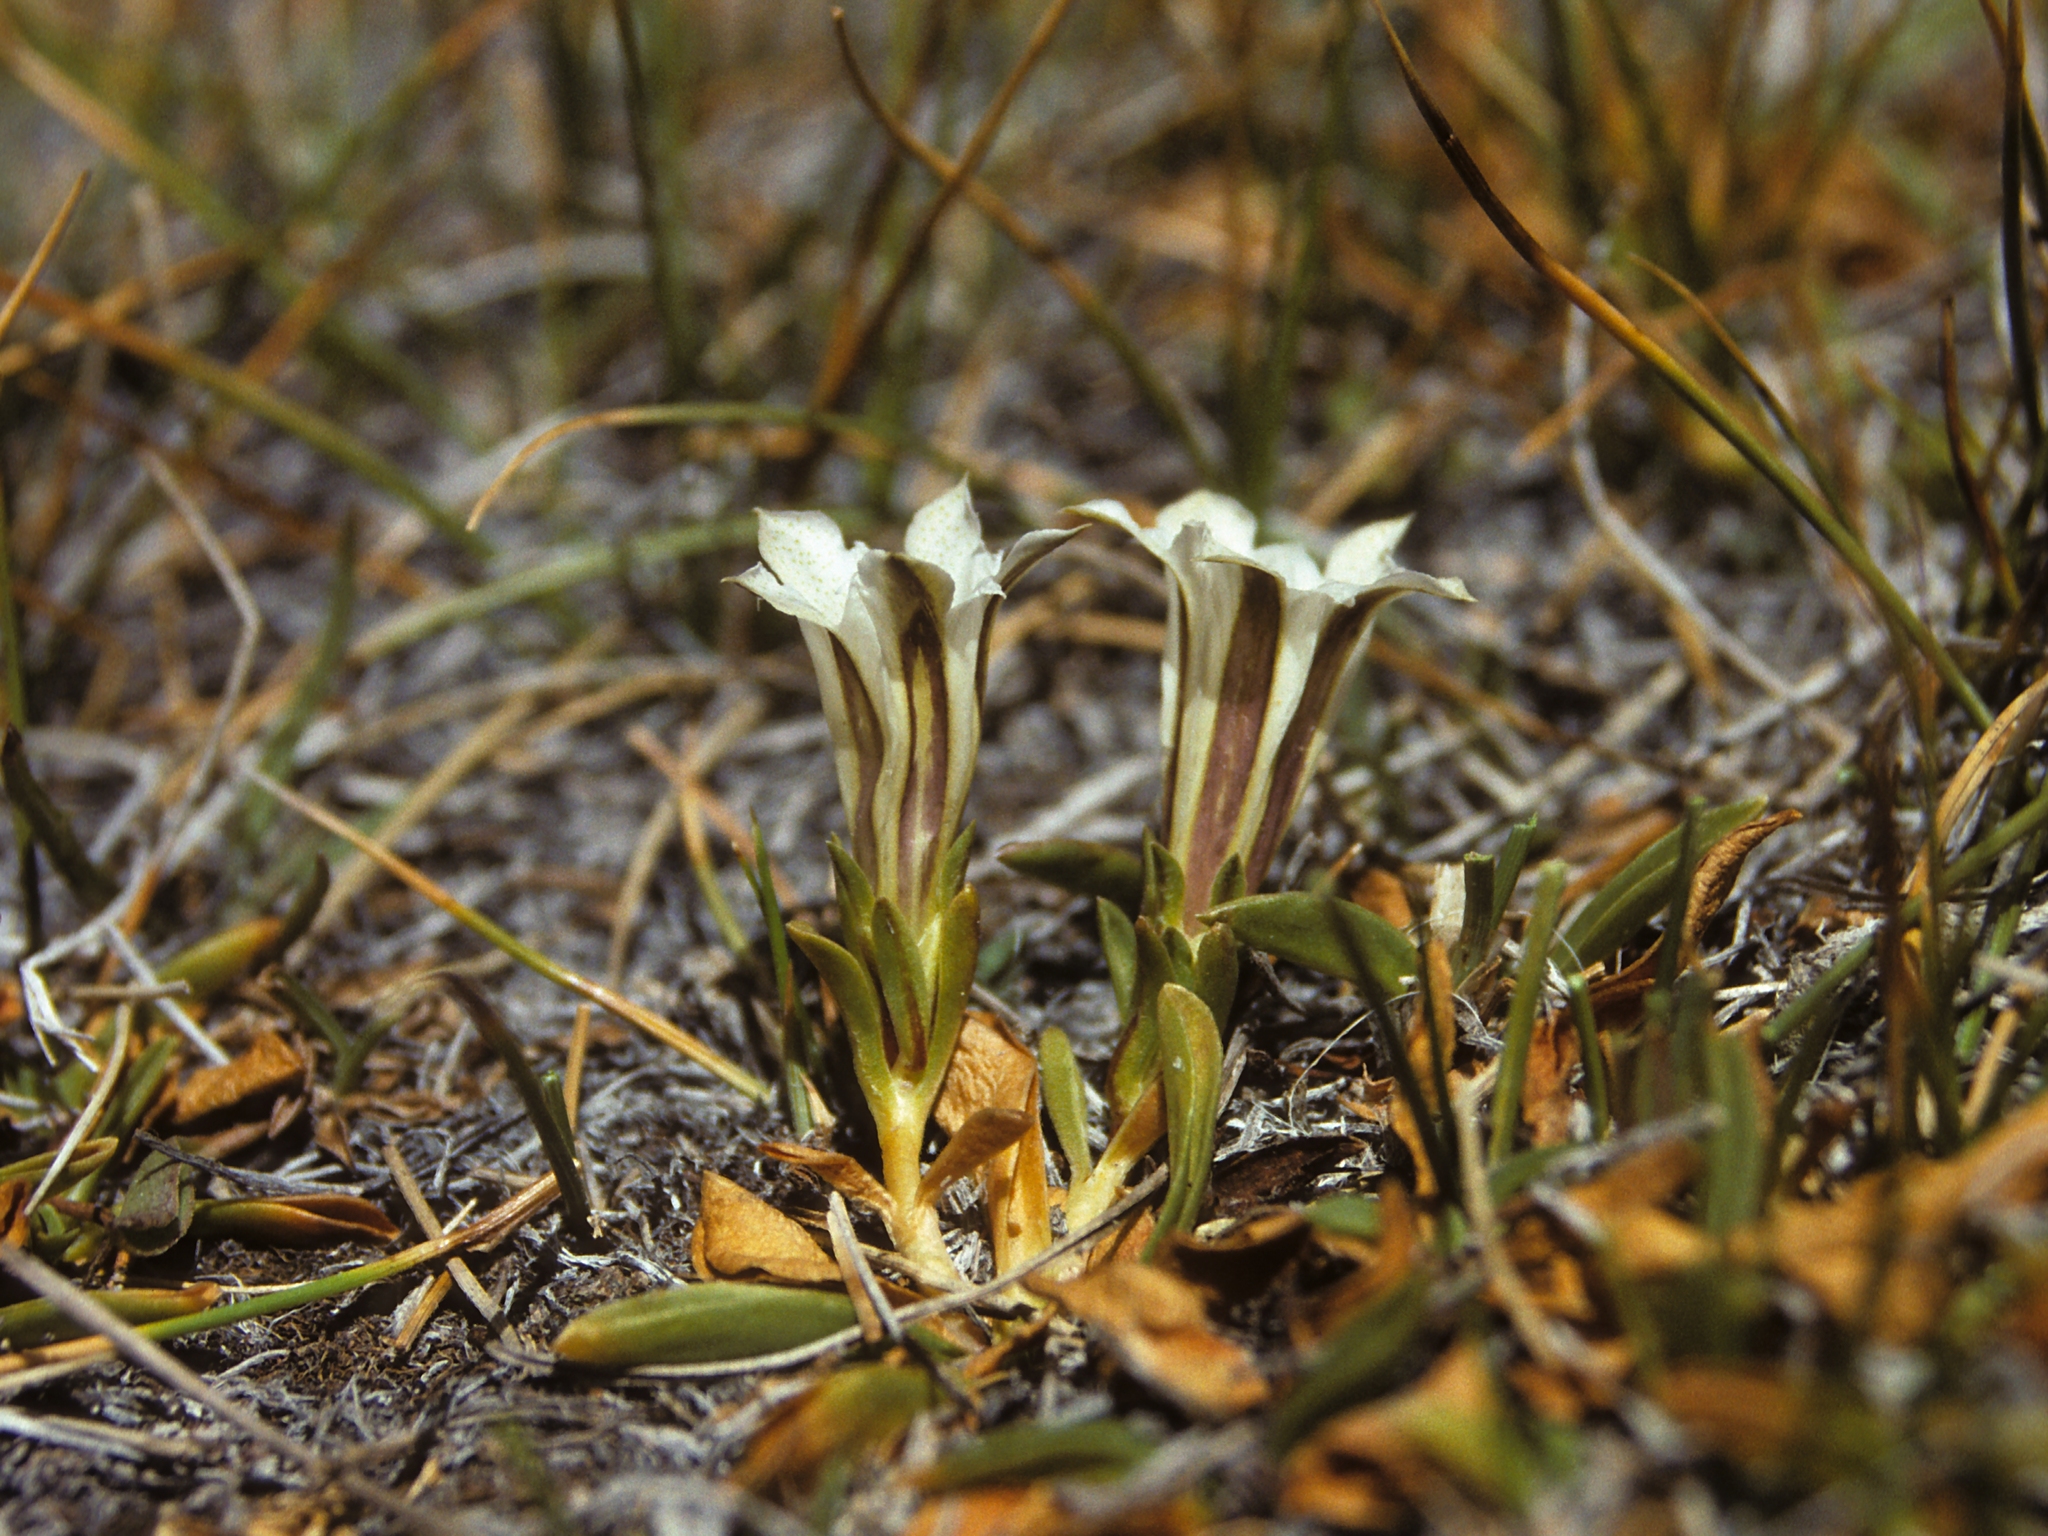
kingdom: Plantae
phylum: Tracheophyta
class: Magnoliopsida
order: Gentianales
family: Gentianaceae
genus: Gentiana
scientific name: Gentiana newberryi
